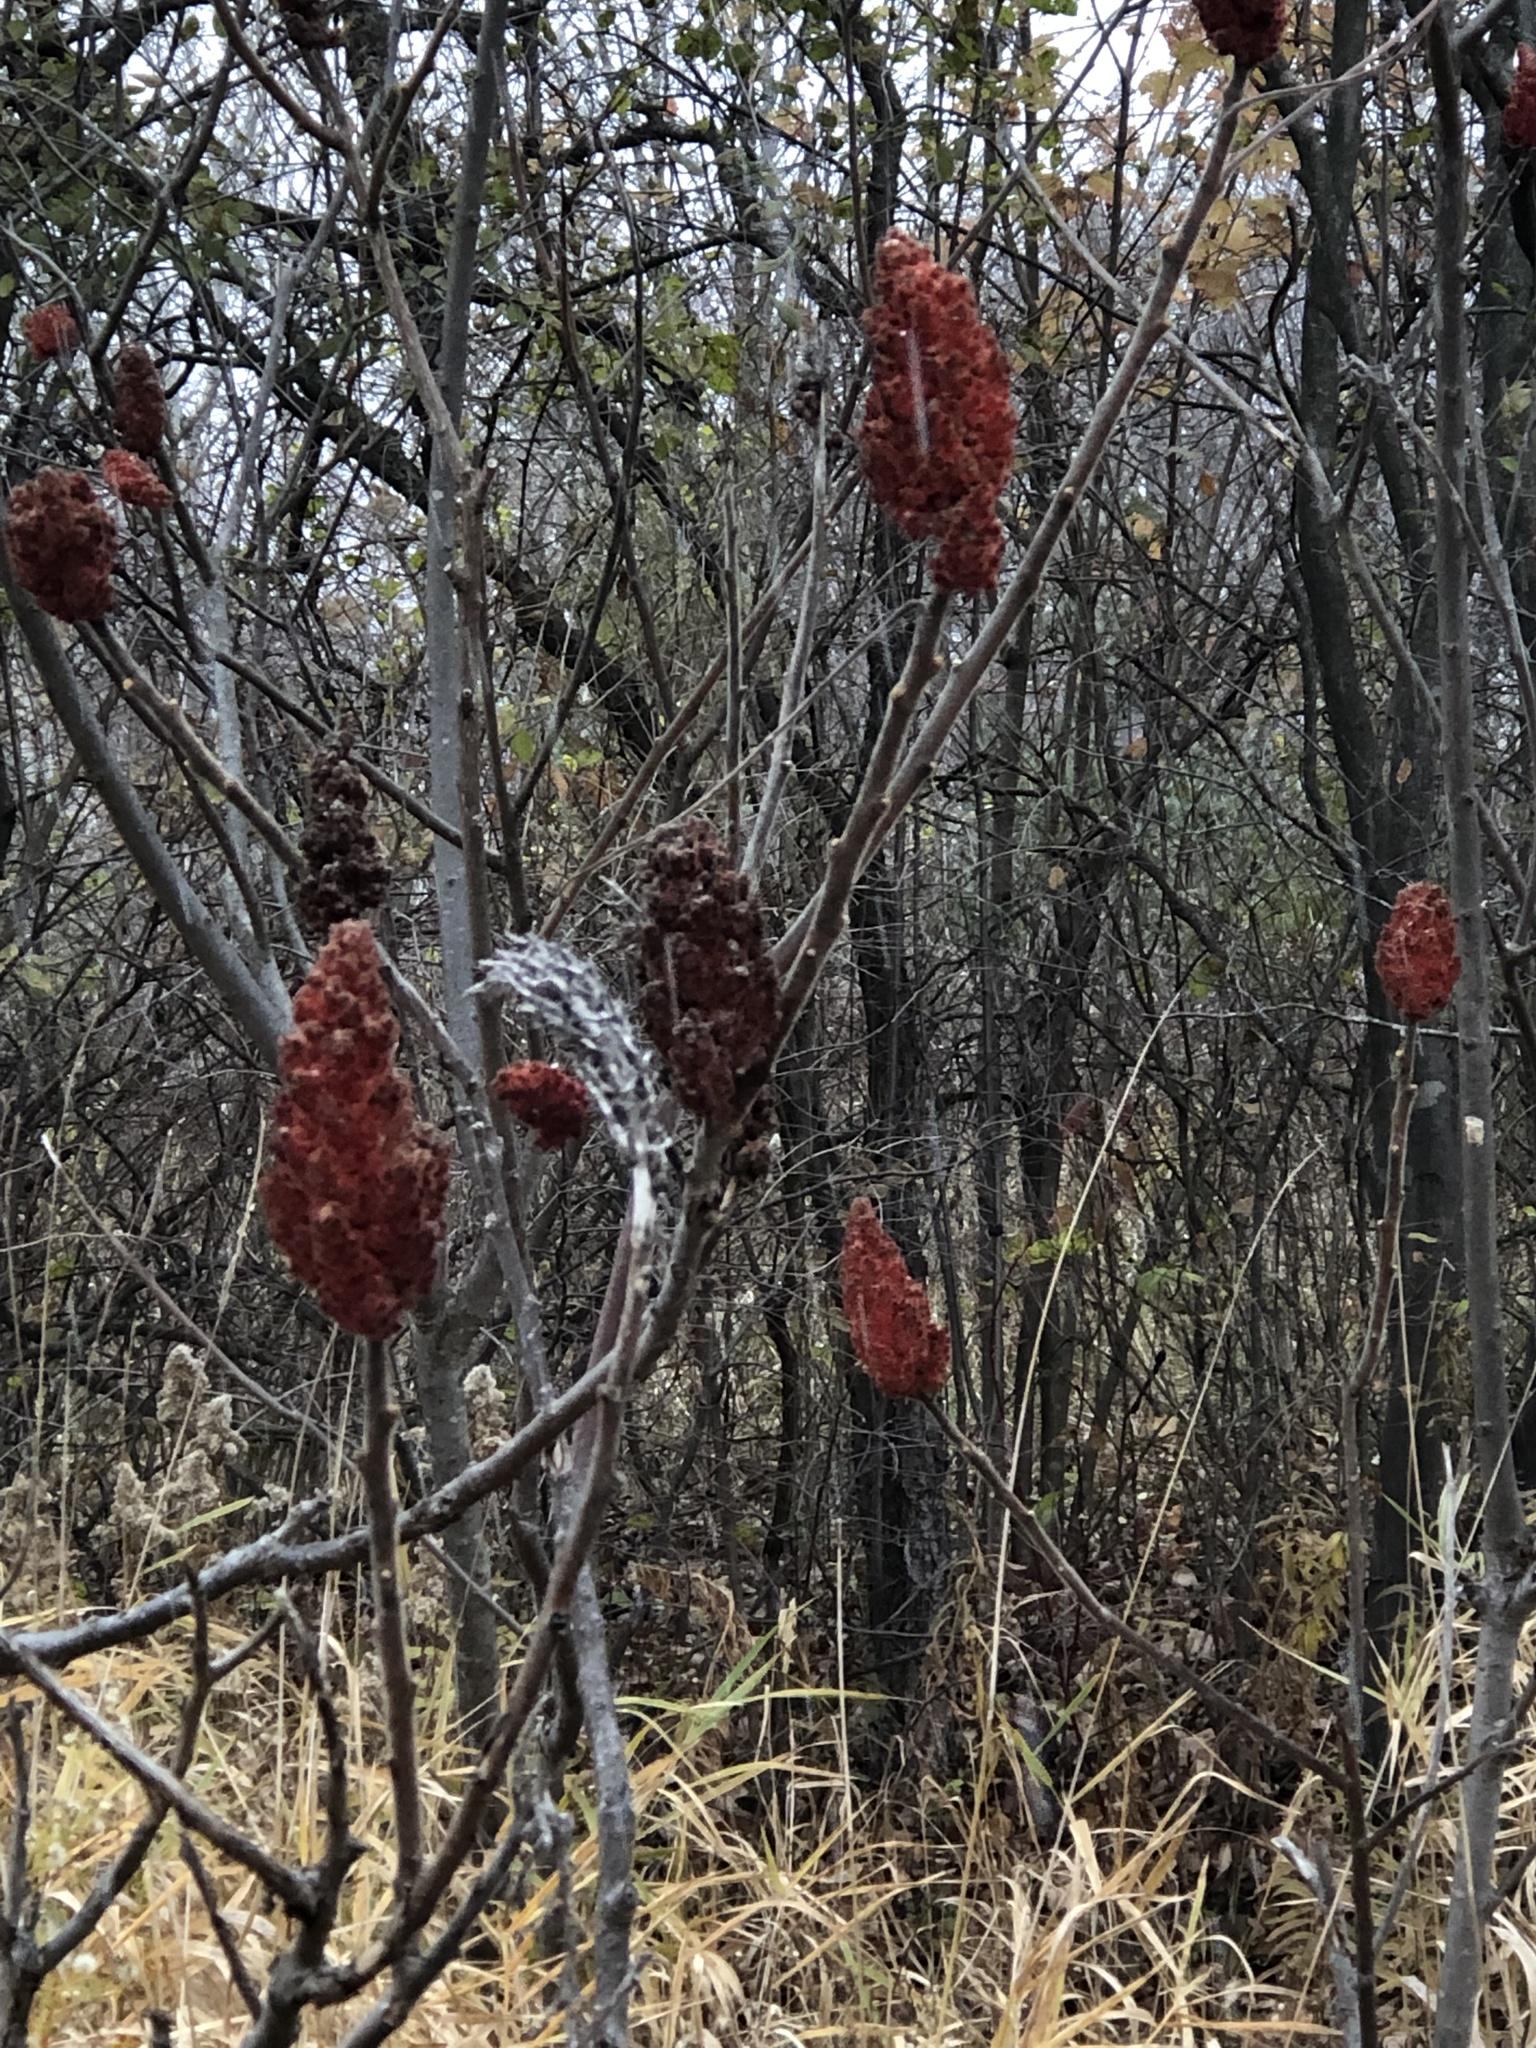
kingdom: Plantae
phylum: Tracheophyta
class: Magnoliopsida
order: Sapindales
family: Anacardiaceae
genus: Rhus
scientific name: Rhus typhina
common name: Staghorn sumac
